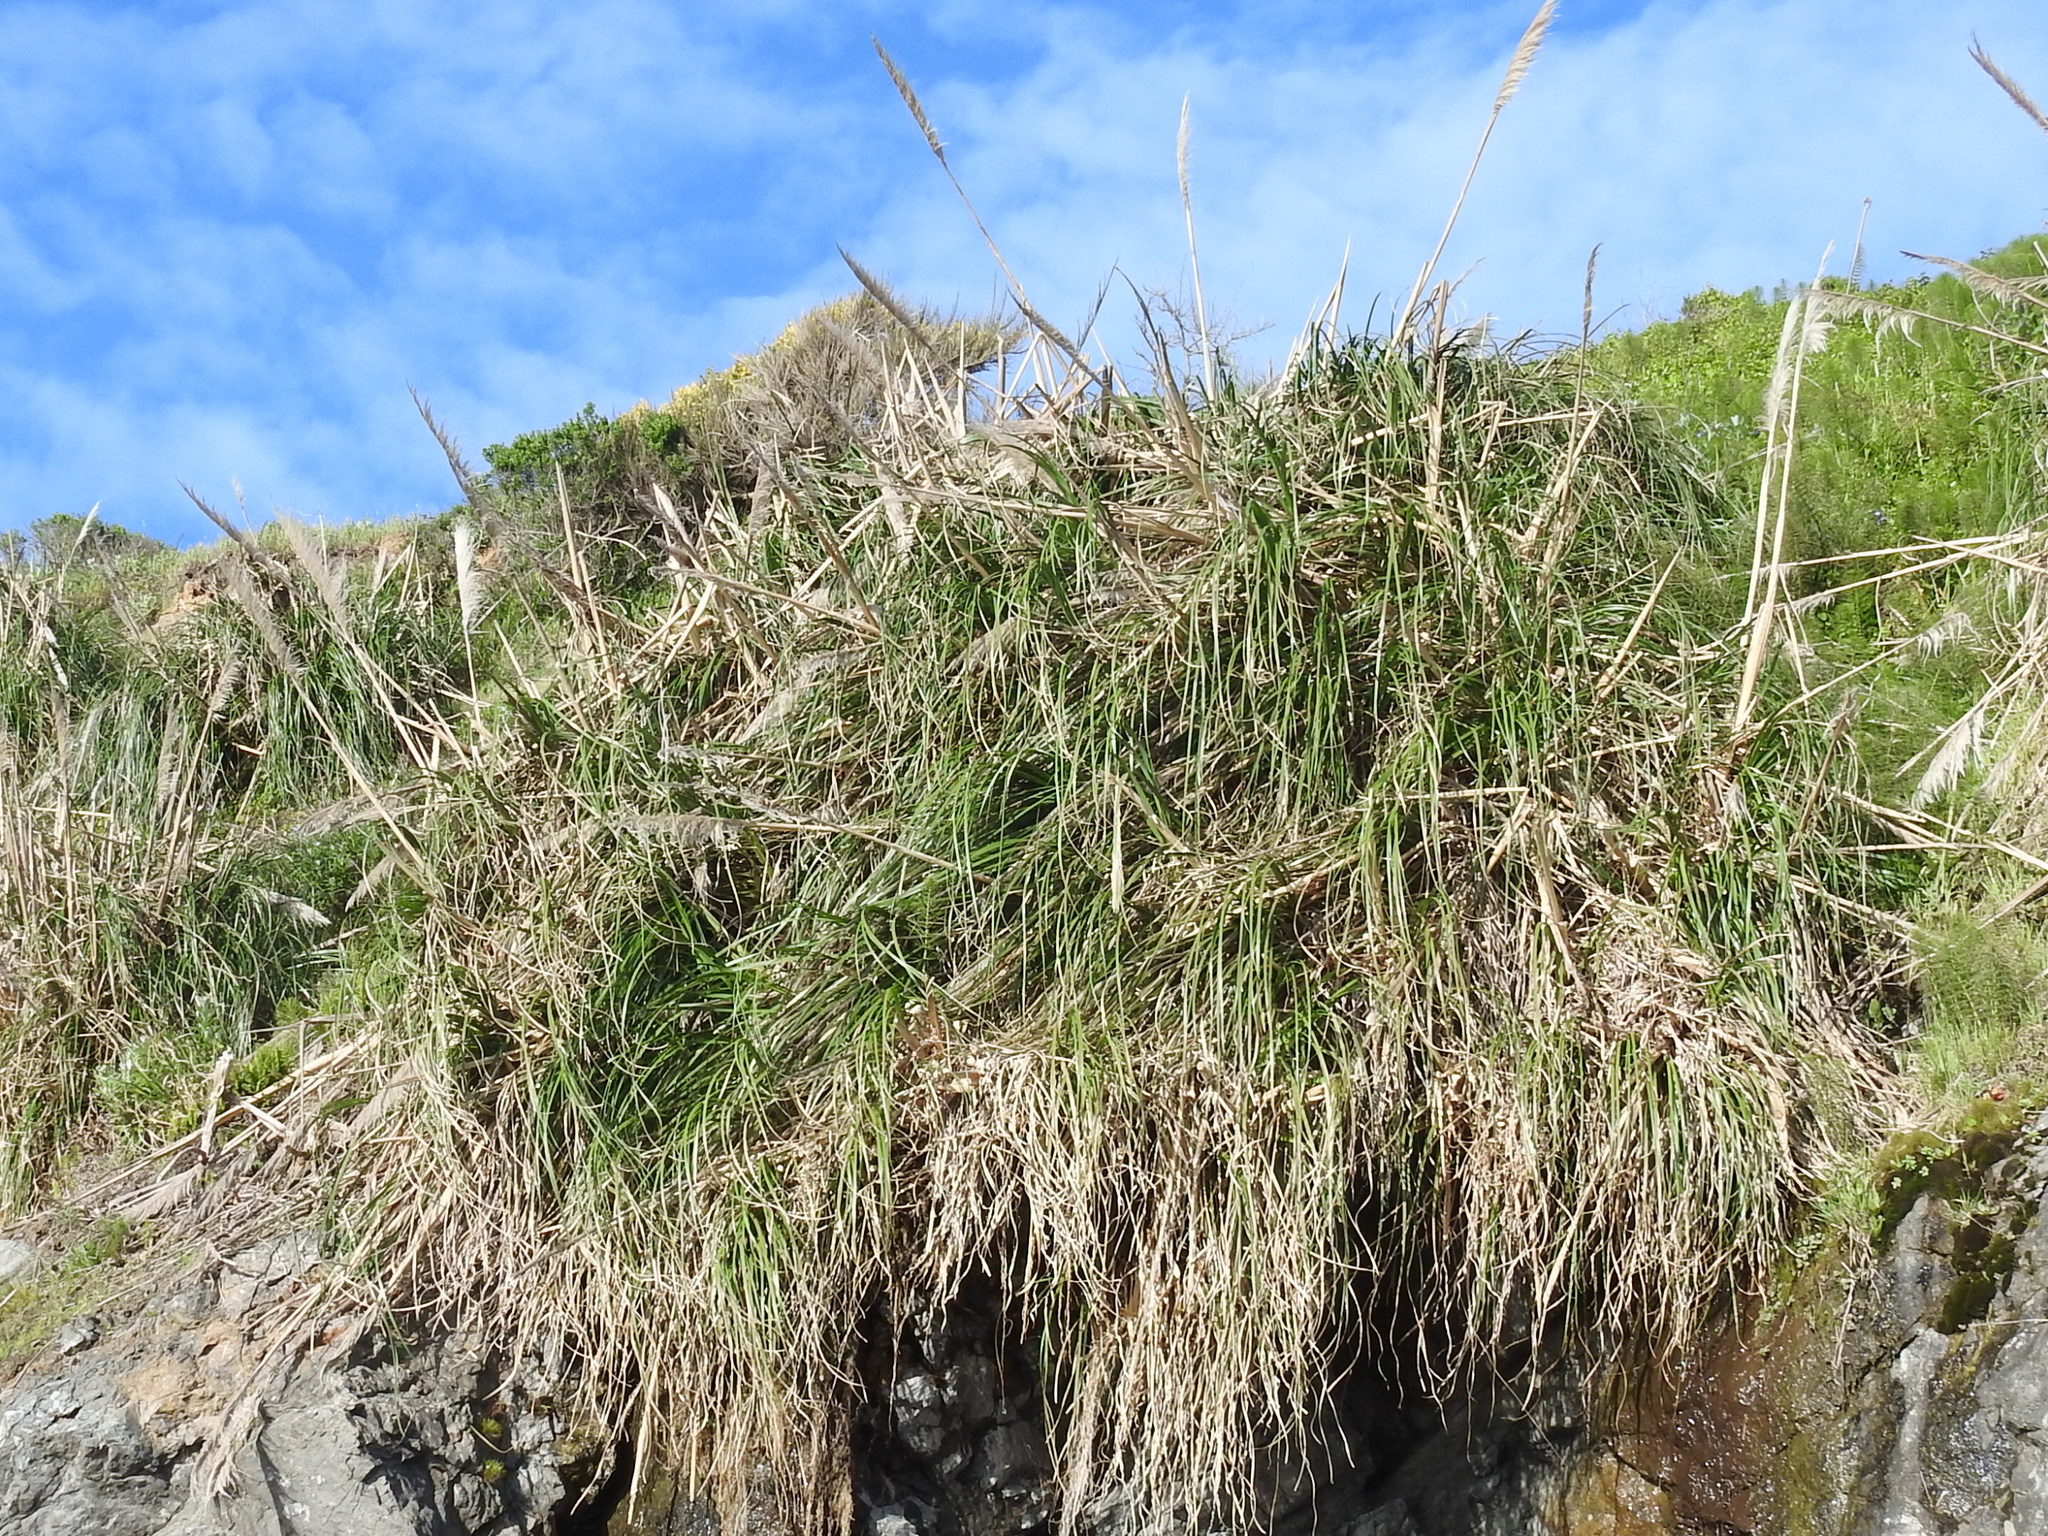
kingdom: Plantae
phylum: Tracheophyta
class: Liliopsida
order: Poales
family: Poaceae
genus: Cortaderia
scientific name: Cortaderia jubata
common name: Purple pampas grass
